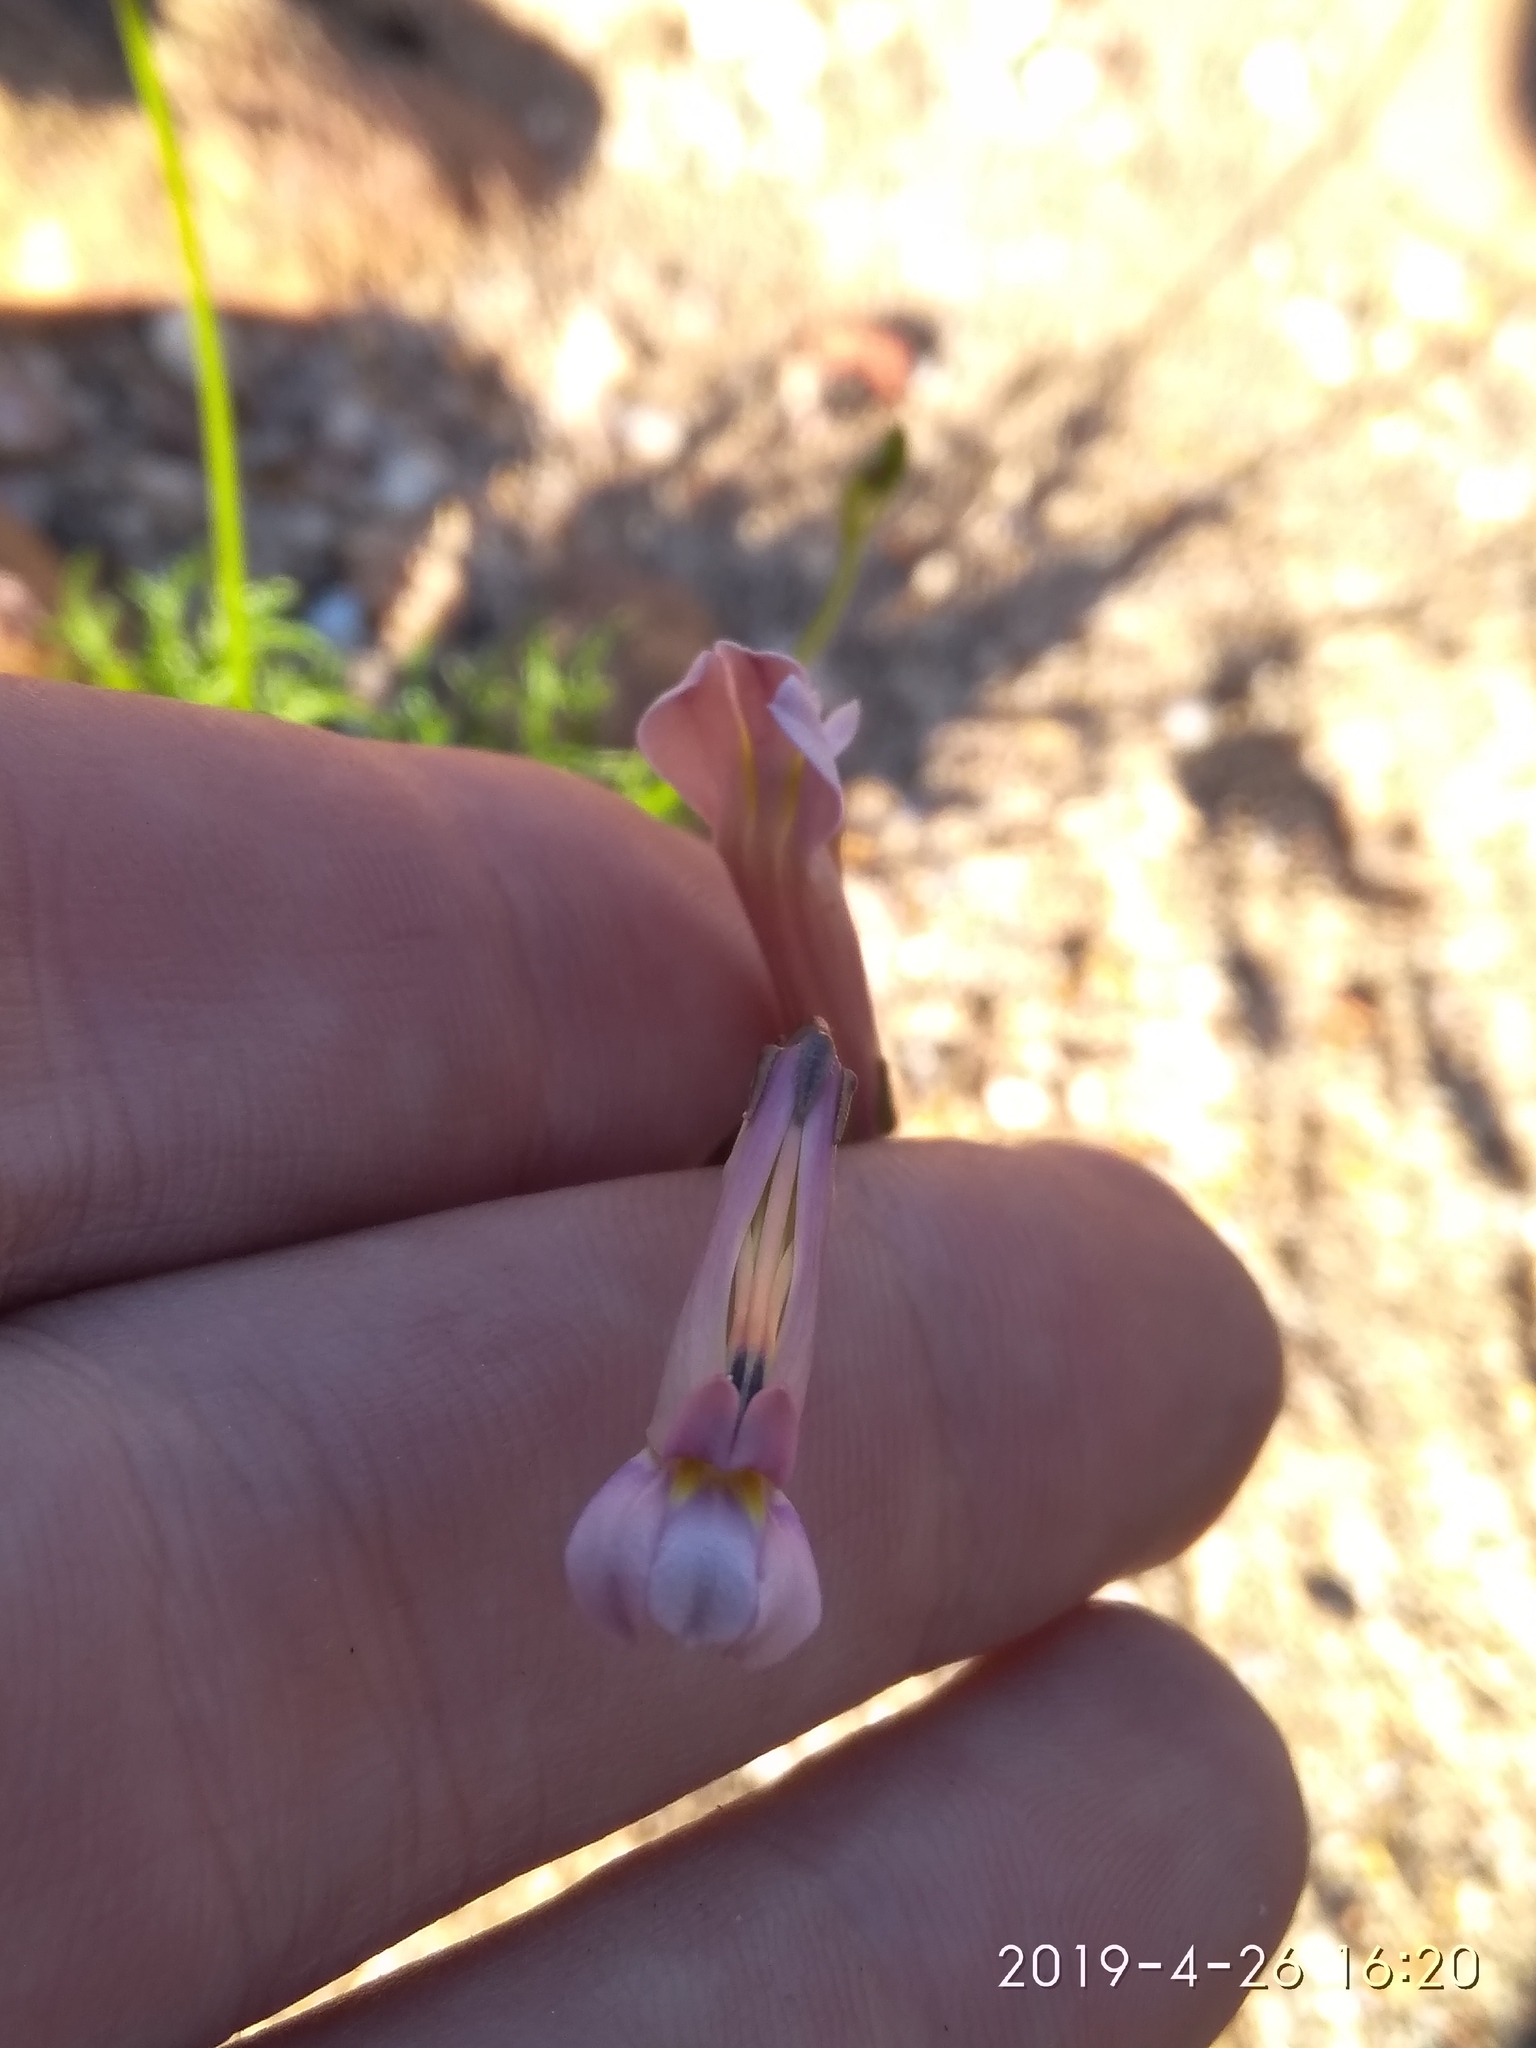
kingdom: Plantae
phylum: Tracheophyta
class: Magnoliopsida
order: Asterales
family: Campanulaceae
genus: Lobelia
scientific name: Lobelia coronopifolia
